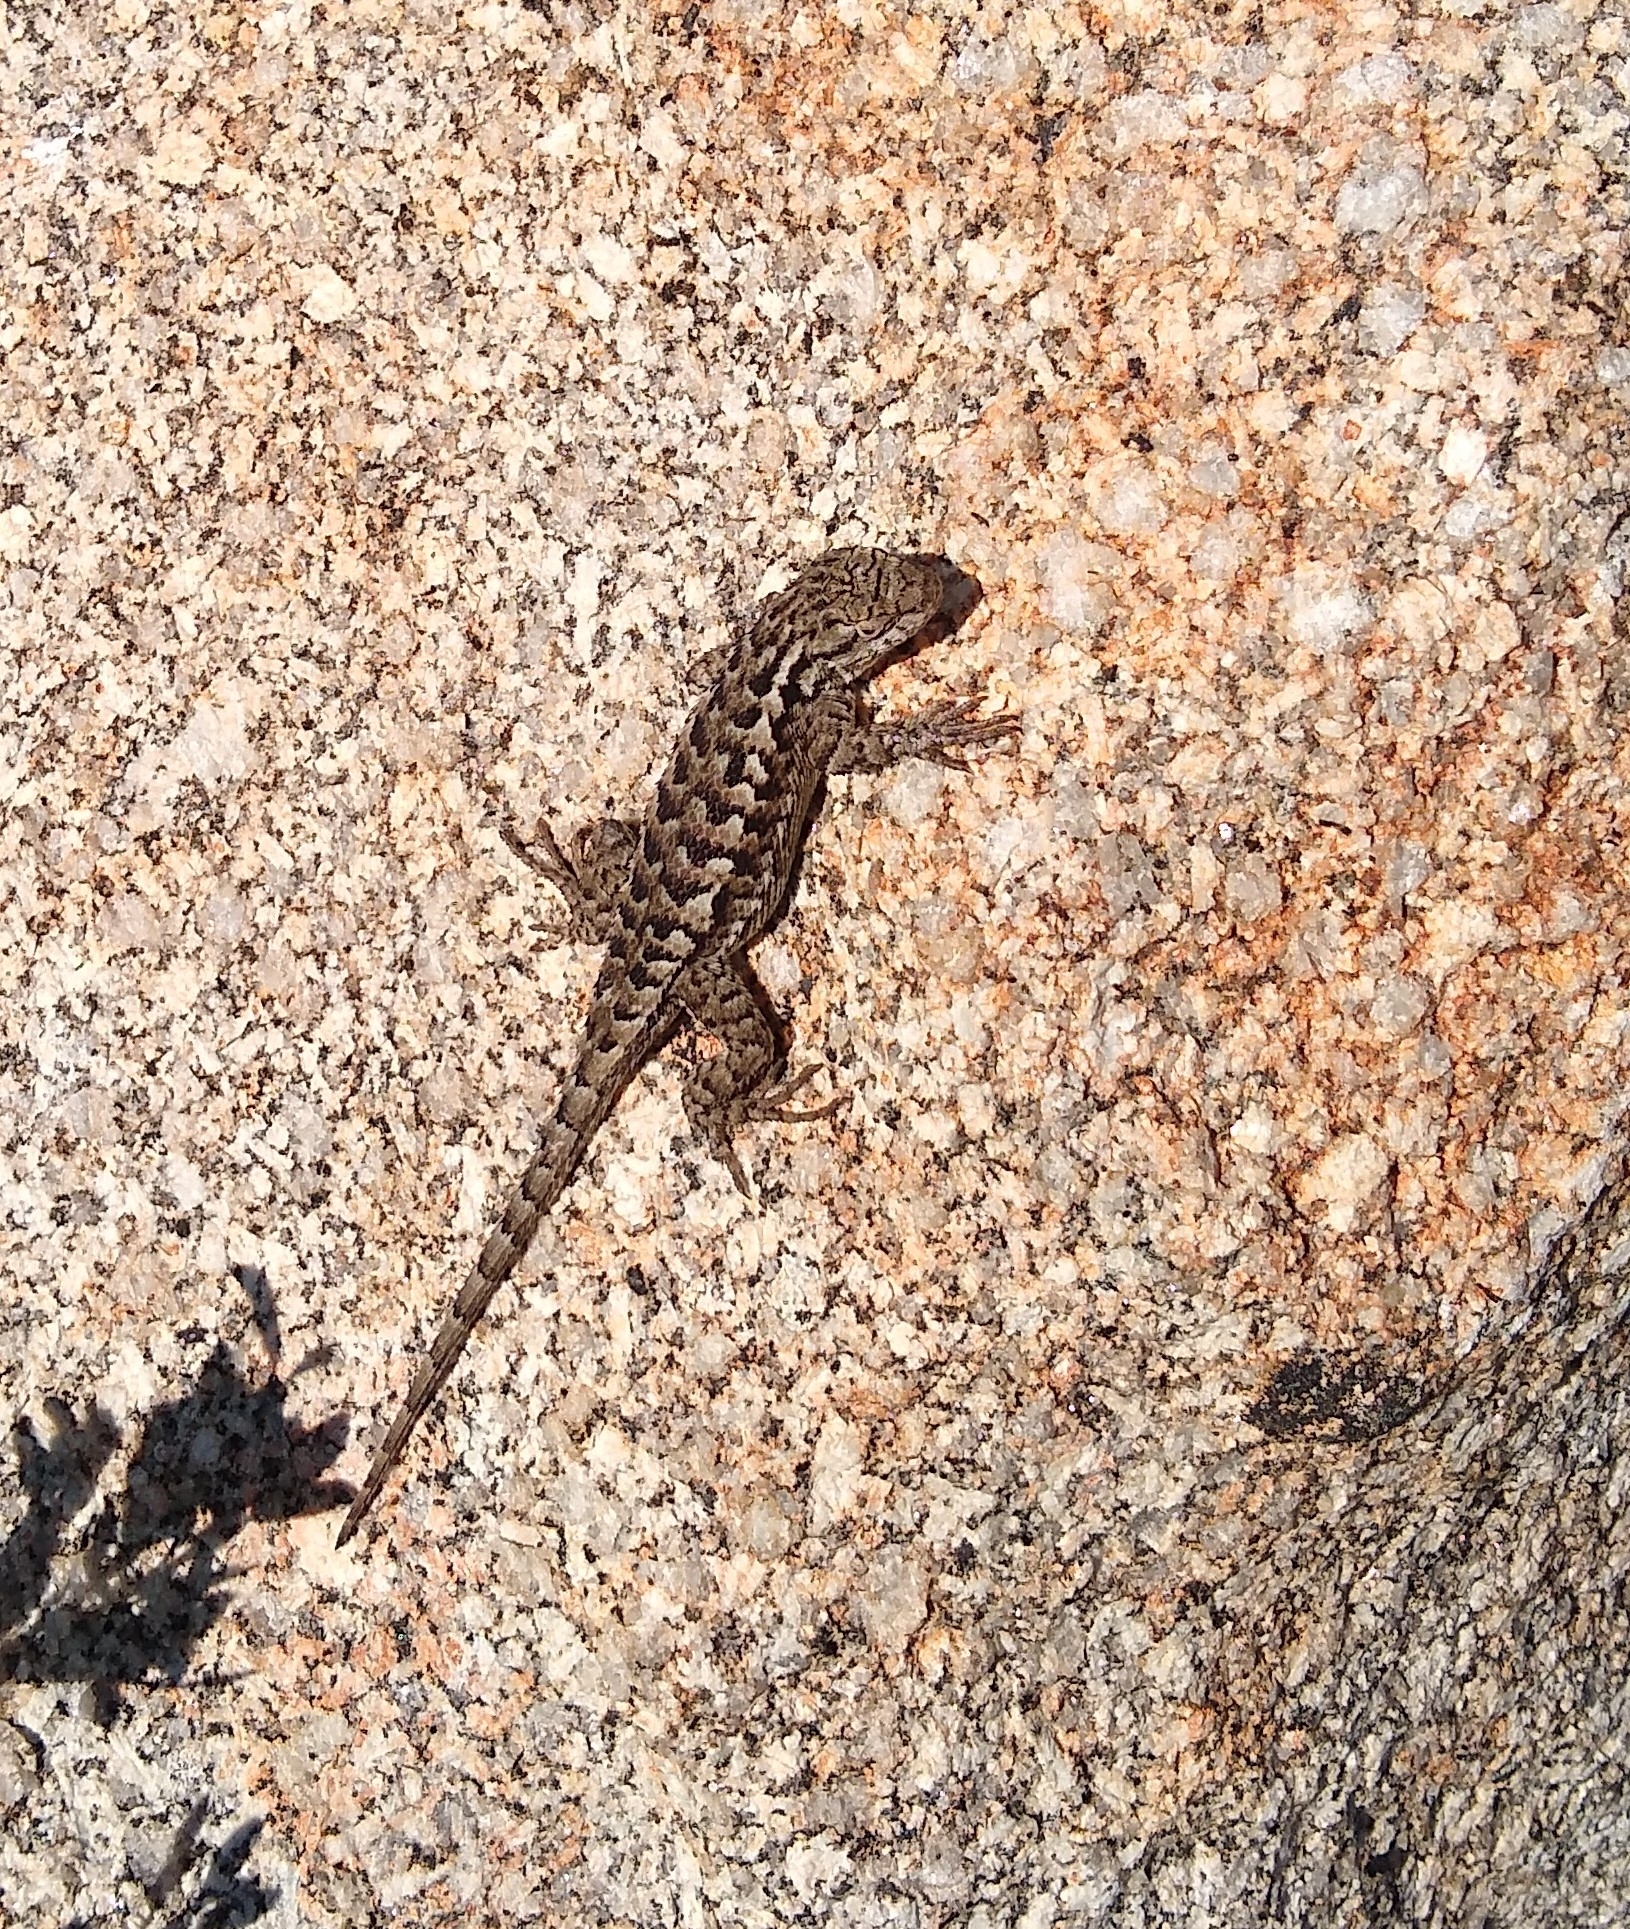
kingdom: Animalia
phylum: Chordata
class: Squamata
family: Phrynosomatidae
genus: Sceloporus
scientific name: Sceloporus occidentalis
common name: Western fence lizard
